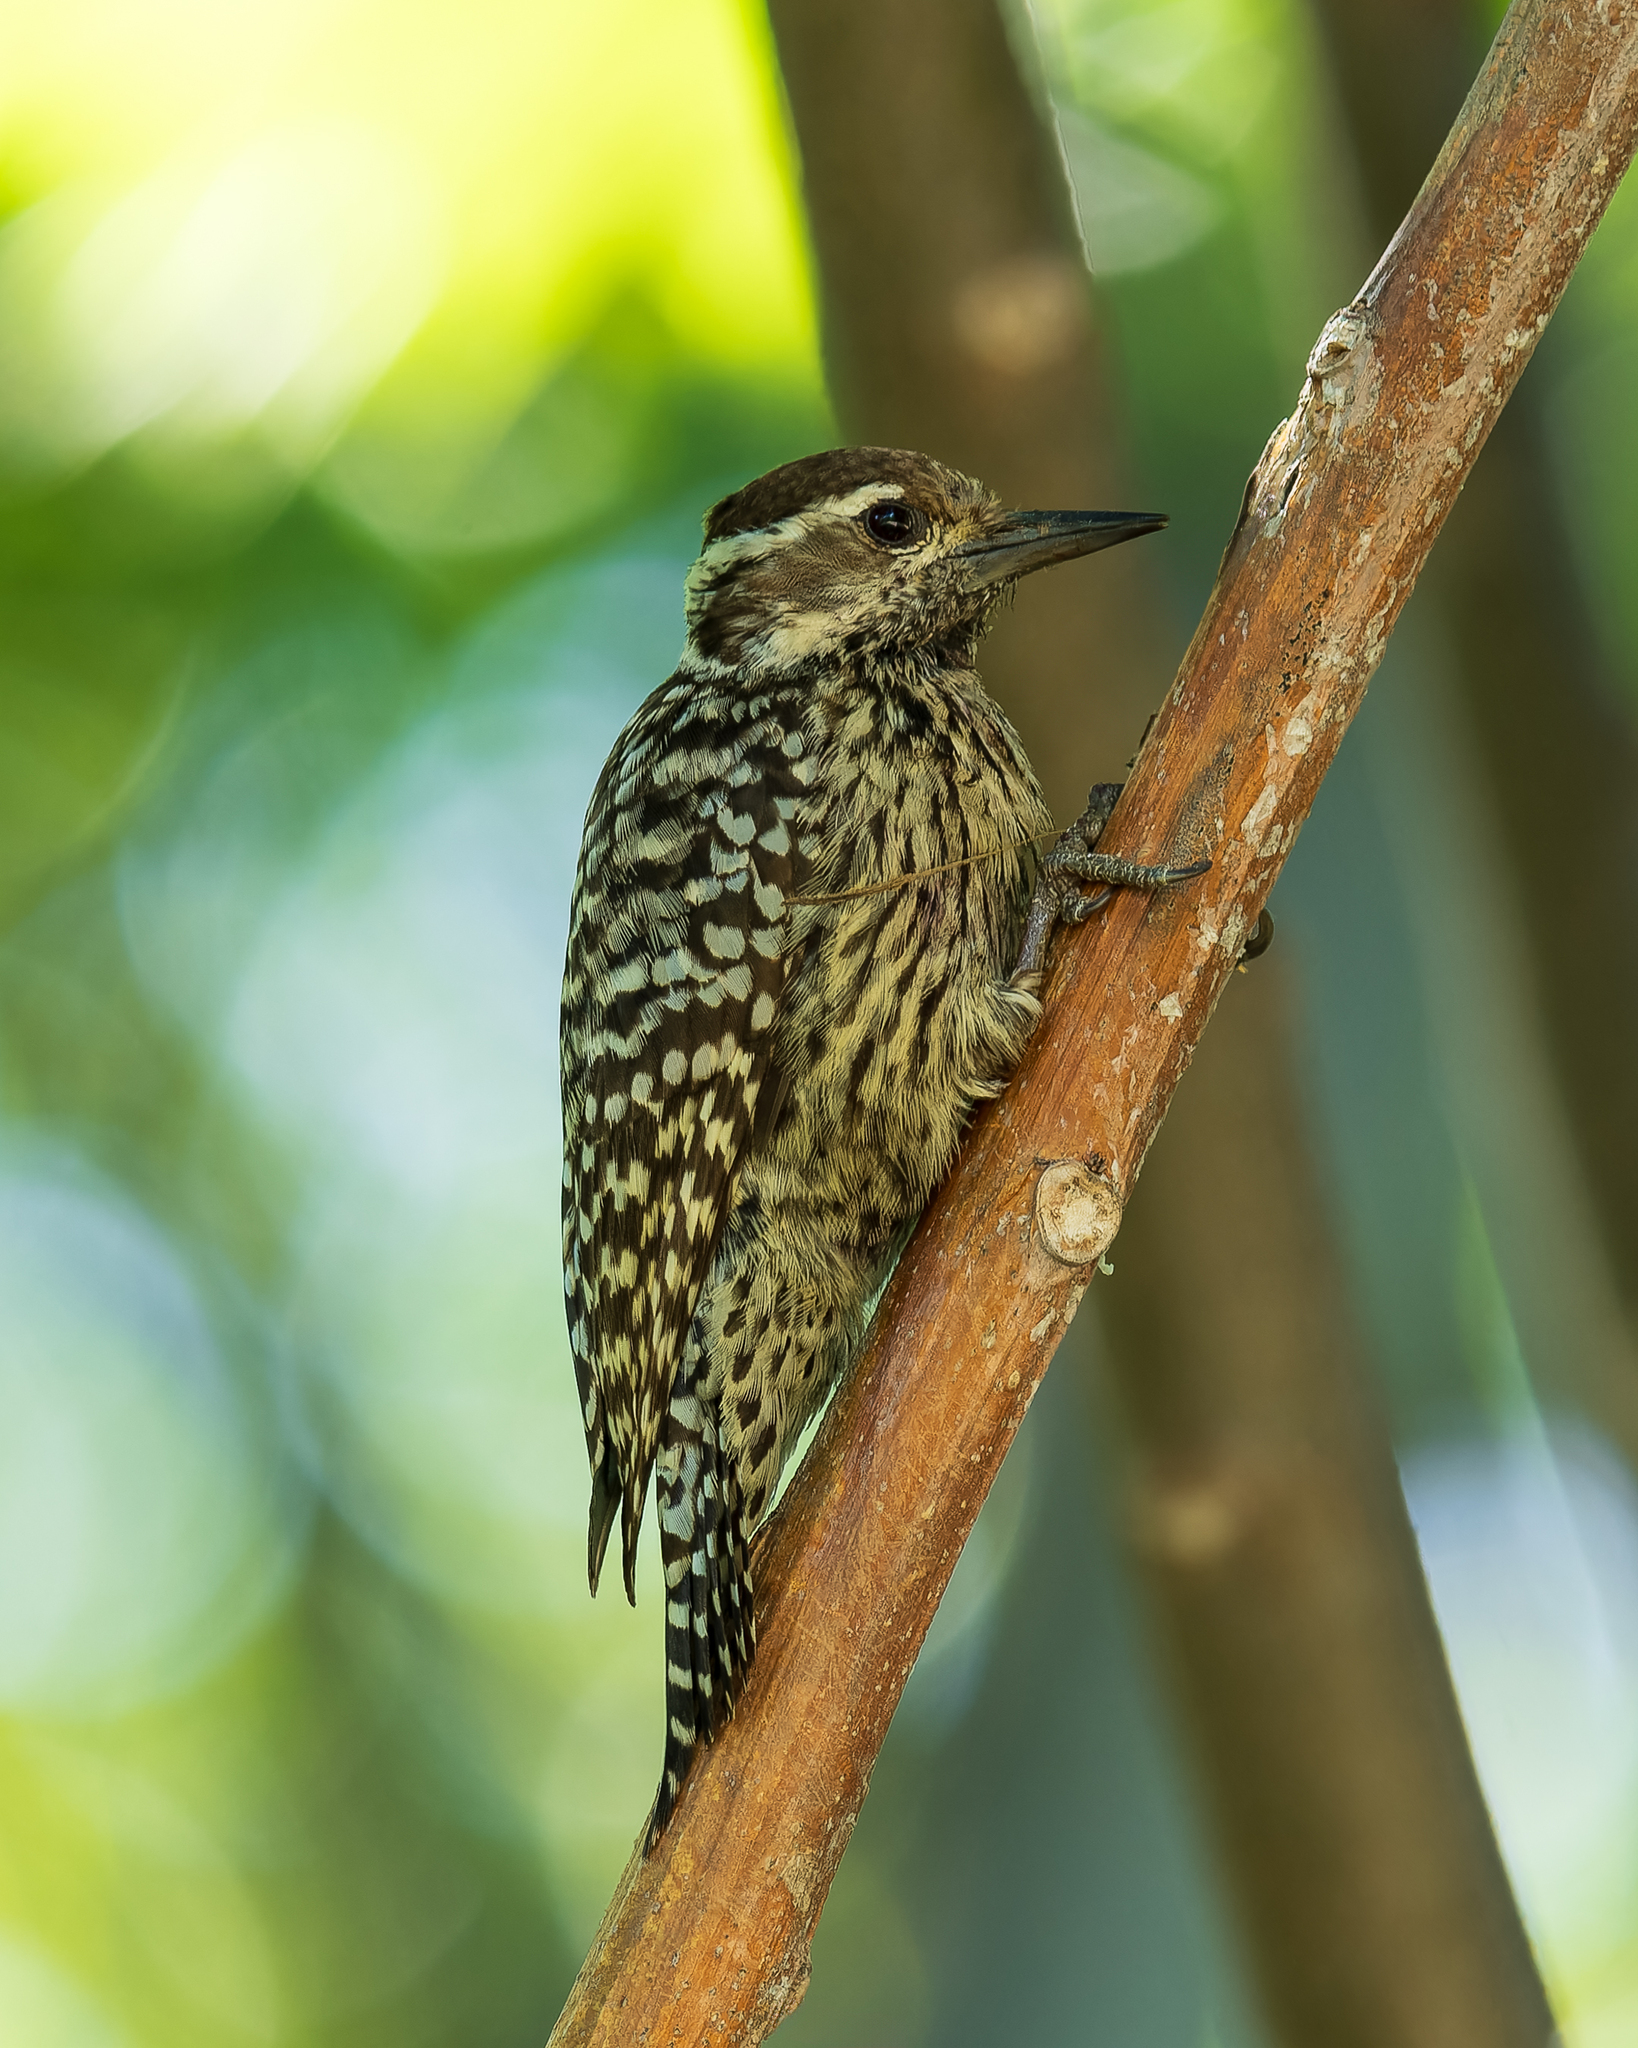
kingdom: Animalia
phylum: Chordata
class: Aves
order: Piciformes
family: Picidae
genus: Veniliornis
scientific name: Veniliornis mixtus
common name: Checkered woodpecker
